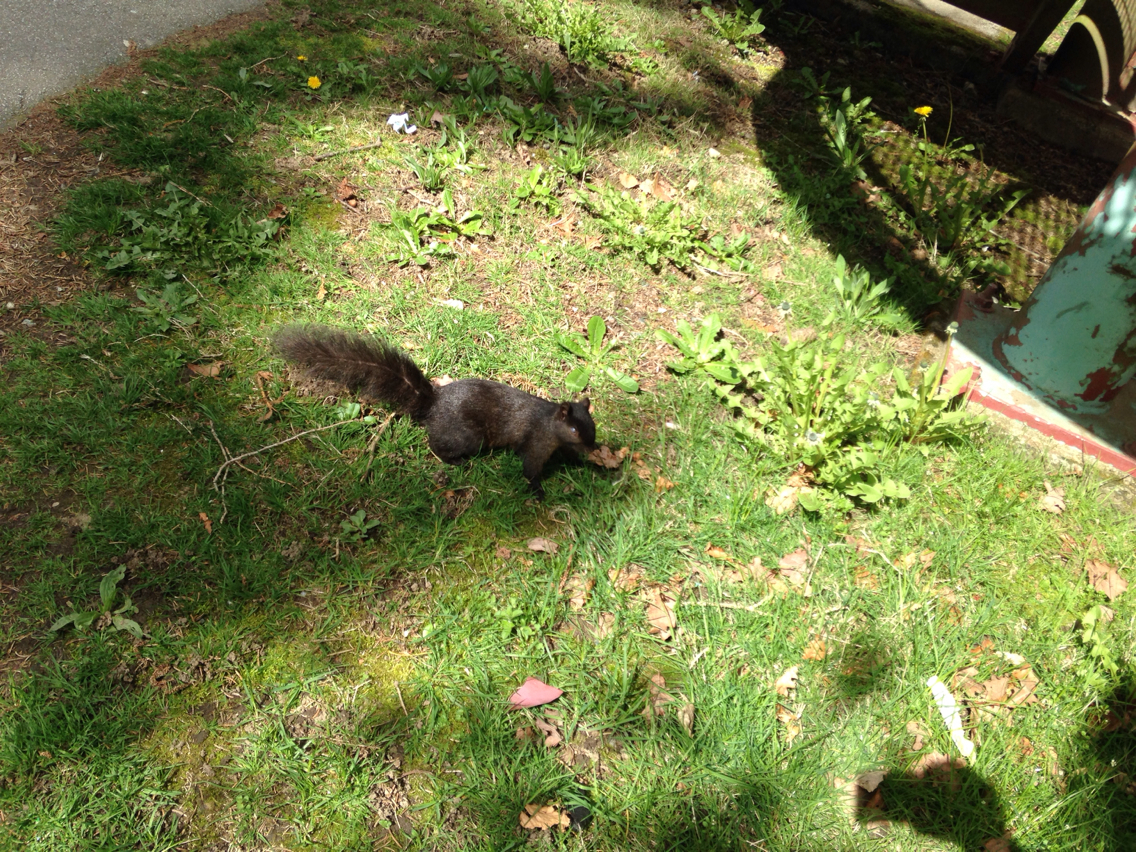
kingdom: Animalia
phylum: Chordata
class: Mammalia
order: Rodentia
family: Sciuridae
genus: Sciurus
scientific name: Sciurus carolinensis
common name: Eastern gray squirrel
